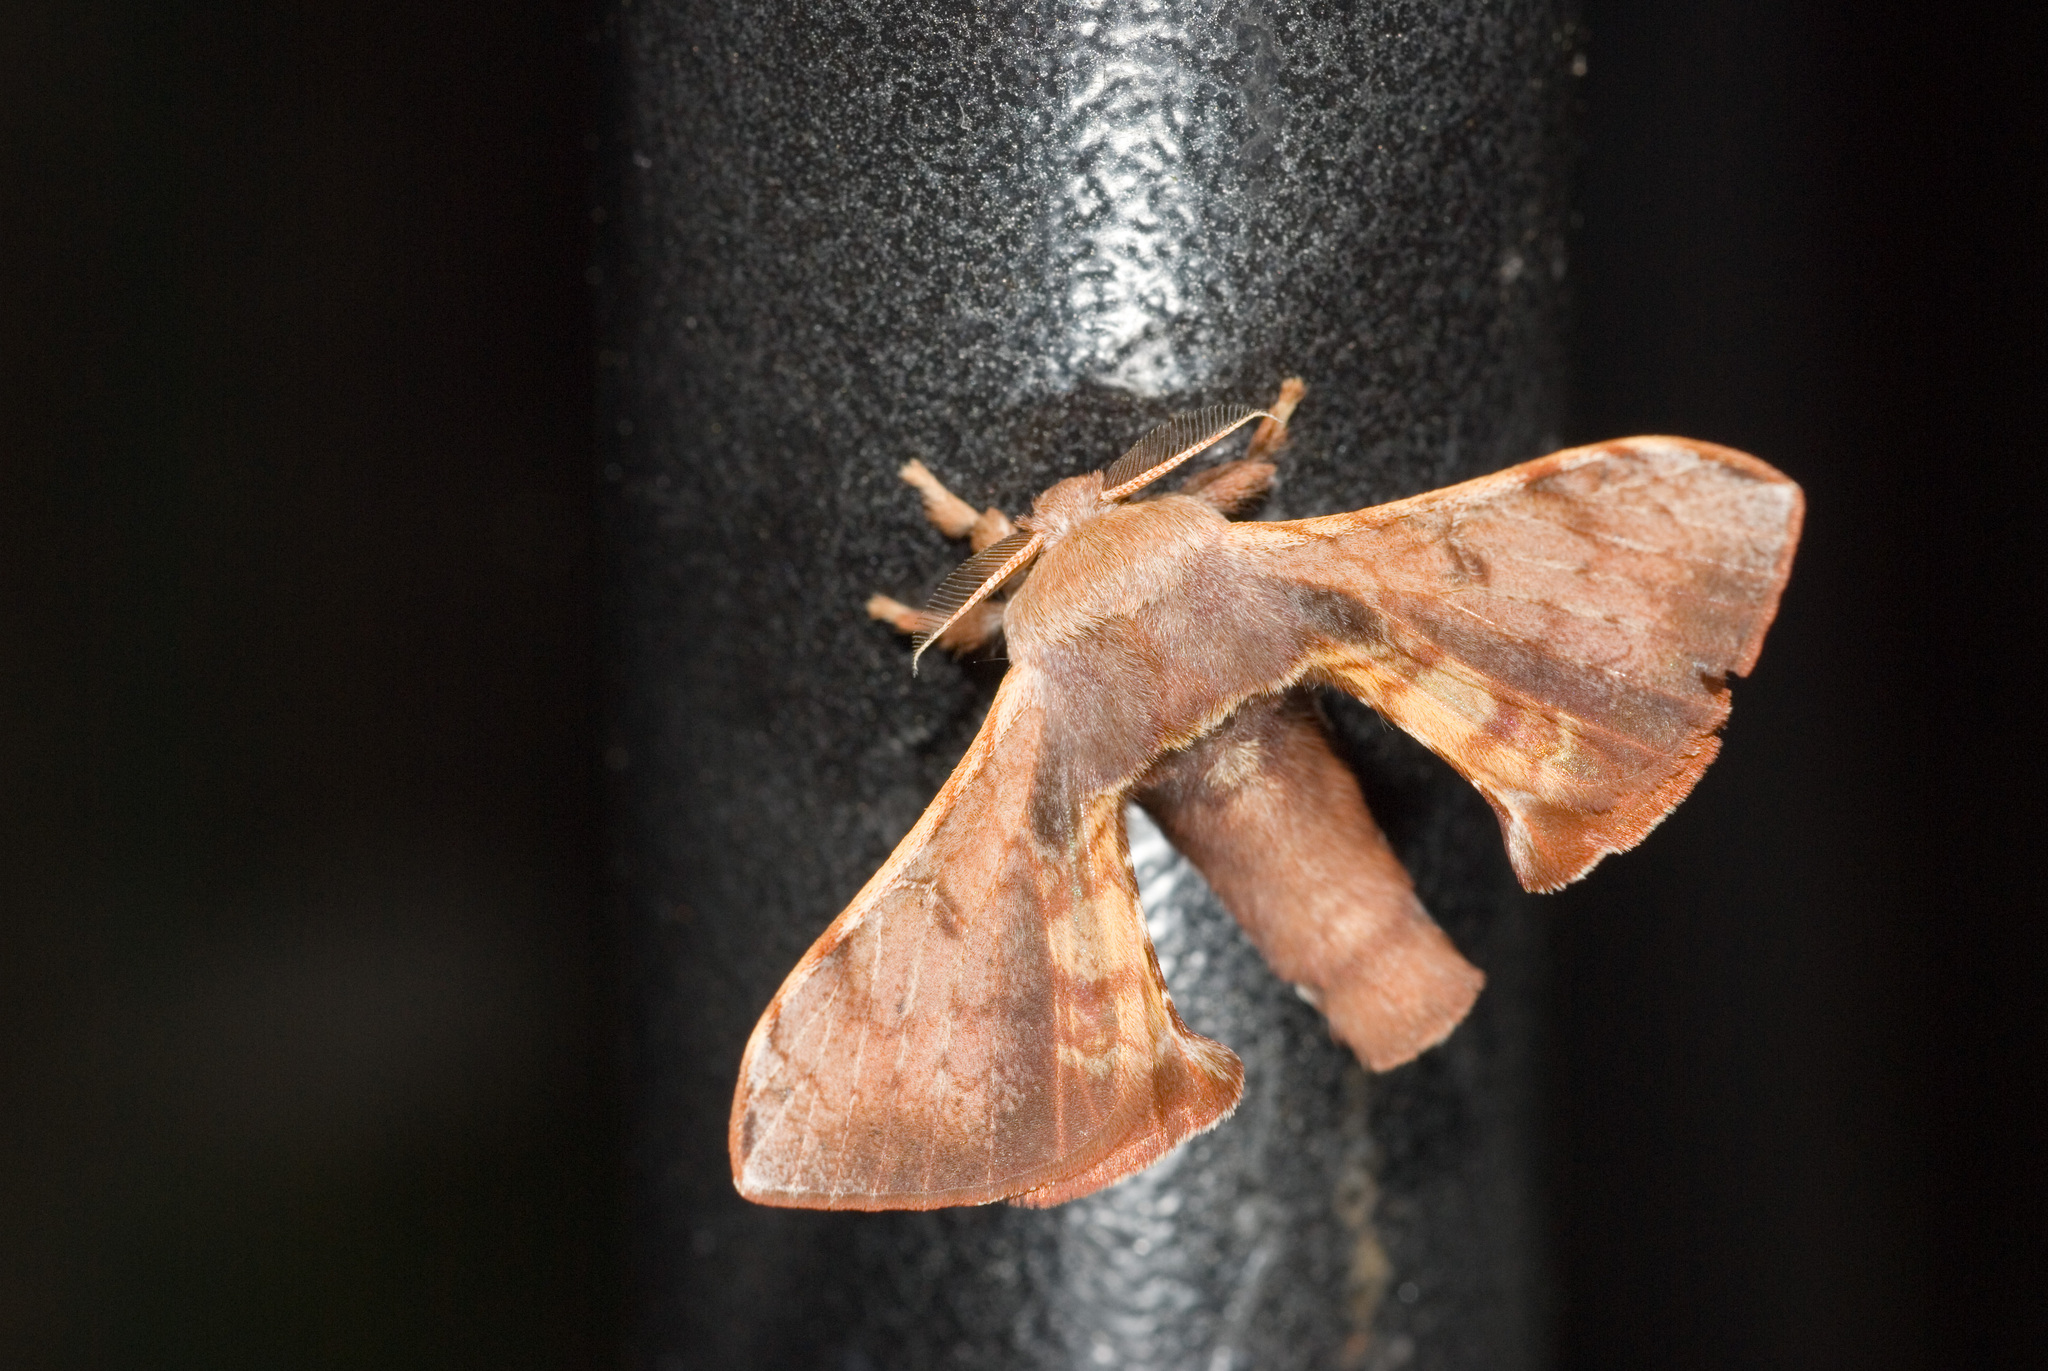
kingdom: Animalia
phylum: Arthropoda
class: Insecta
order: Lepidoptera
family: Bombycidae
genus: Triuncina
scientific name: Triuncina brunnea
